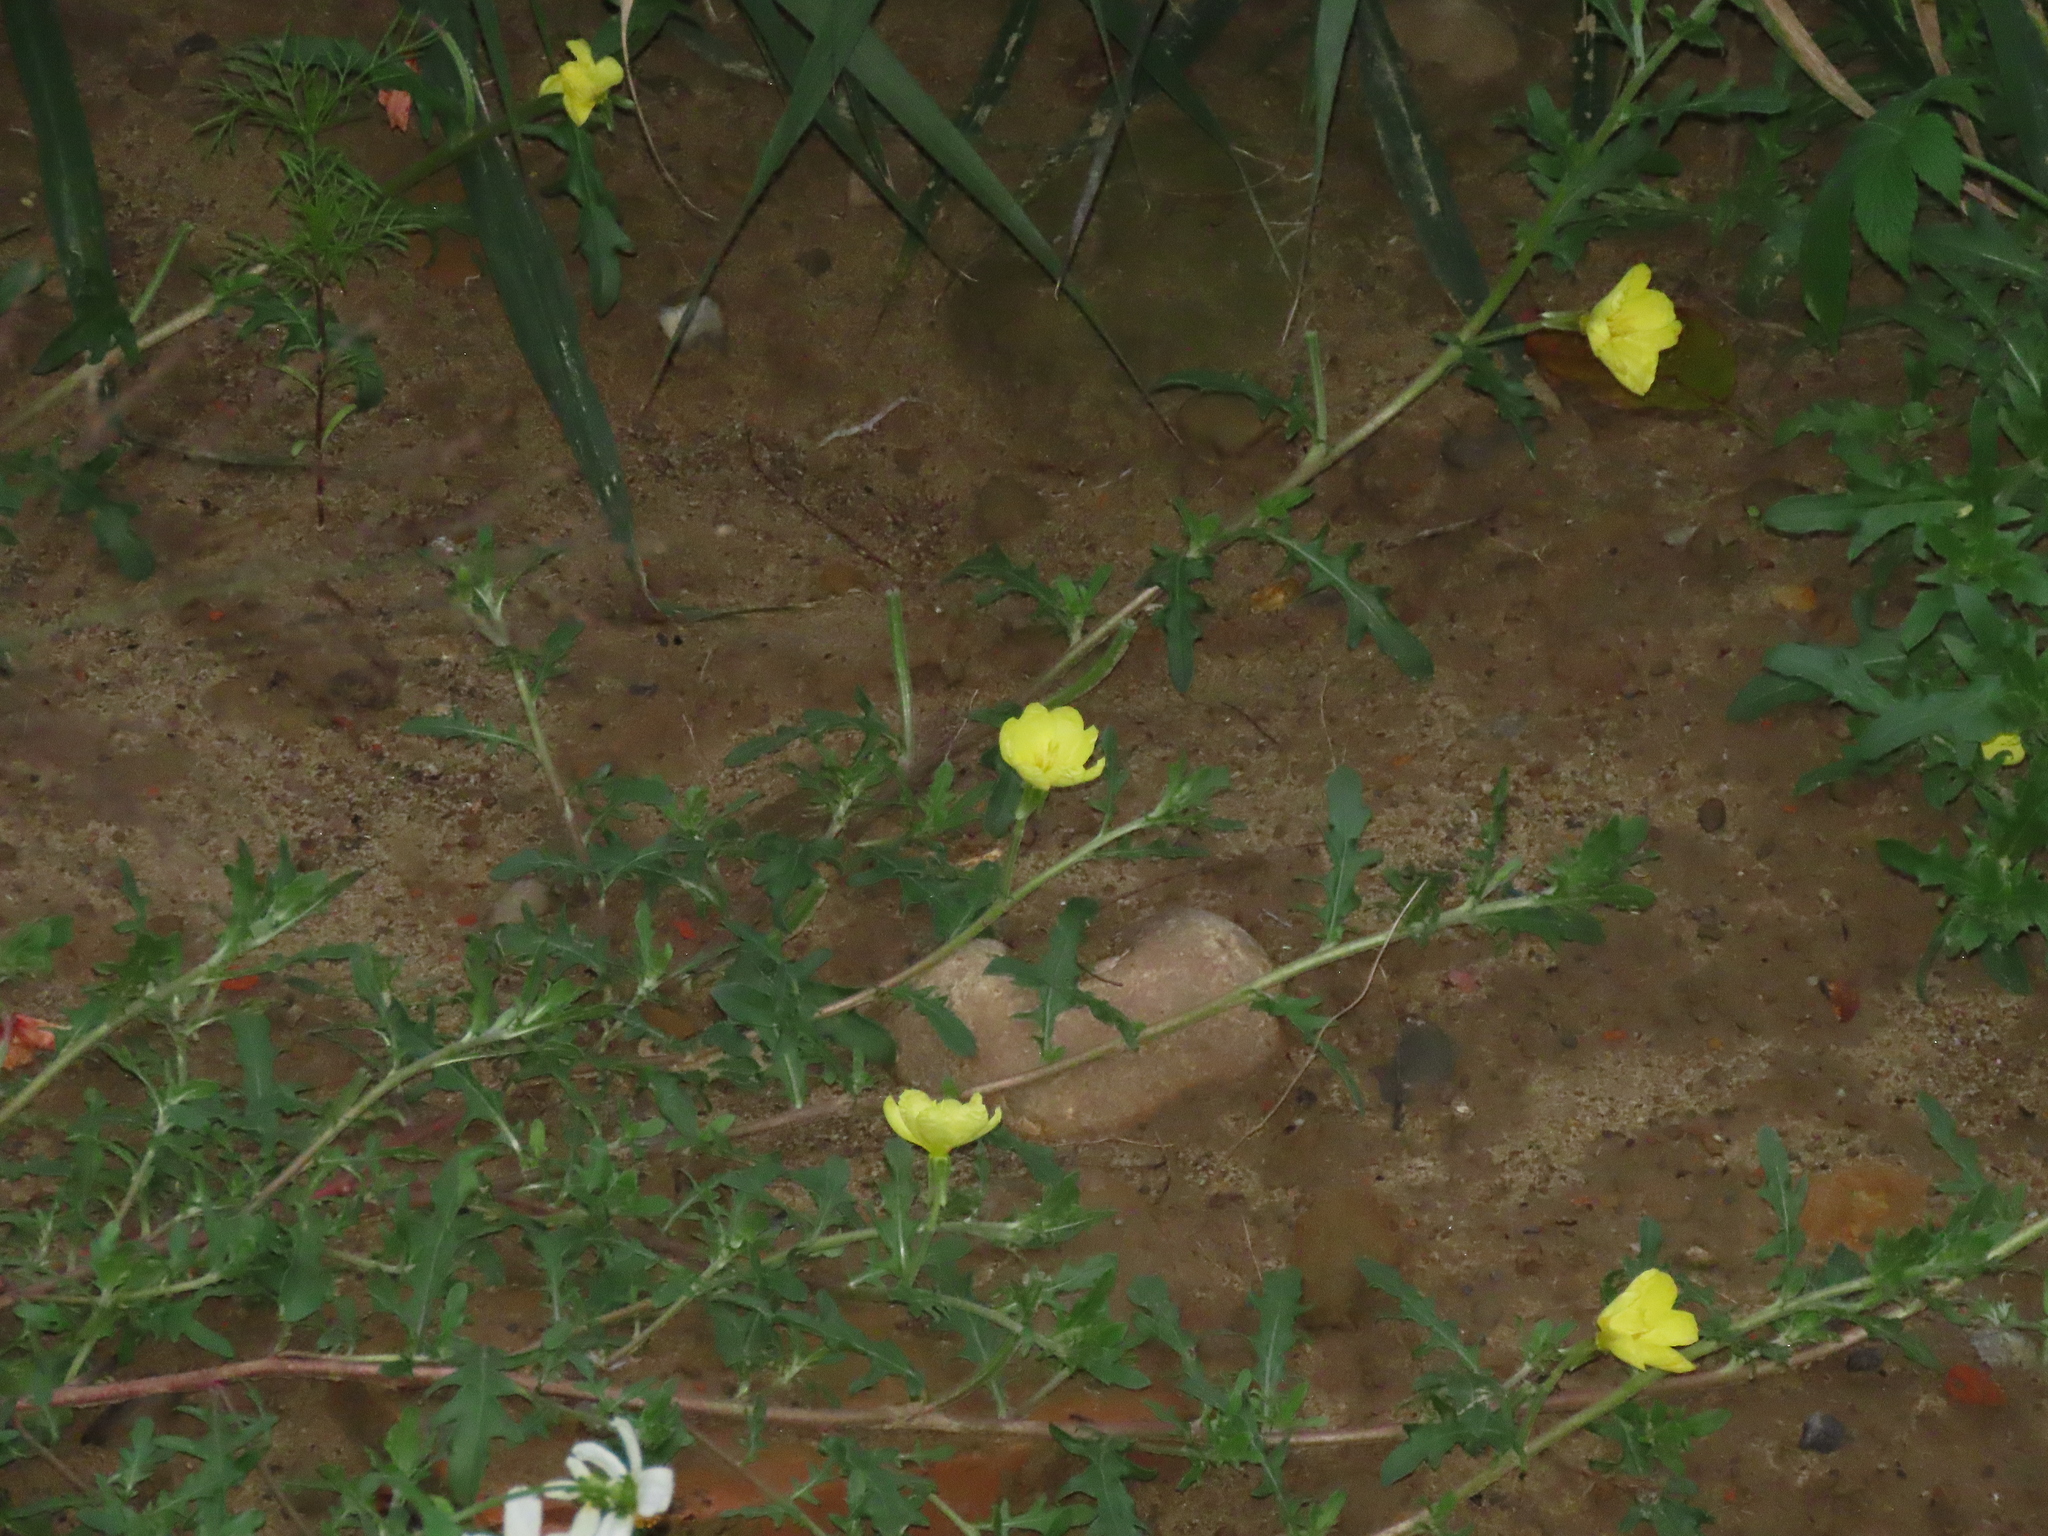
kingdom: Plantae
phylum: Tracheophyta
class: Magnoliopsida
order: Myrtales
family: Onagraceae
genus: Oenothera
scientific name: Oenothera laciniata
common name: Cut-leaved evening-primrose
